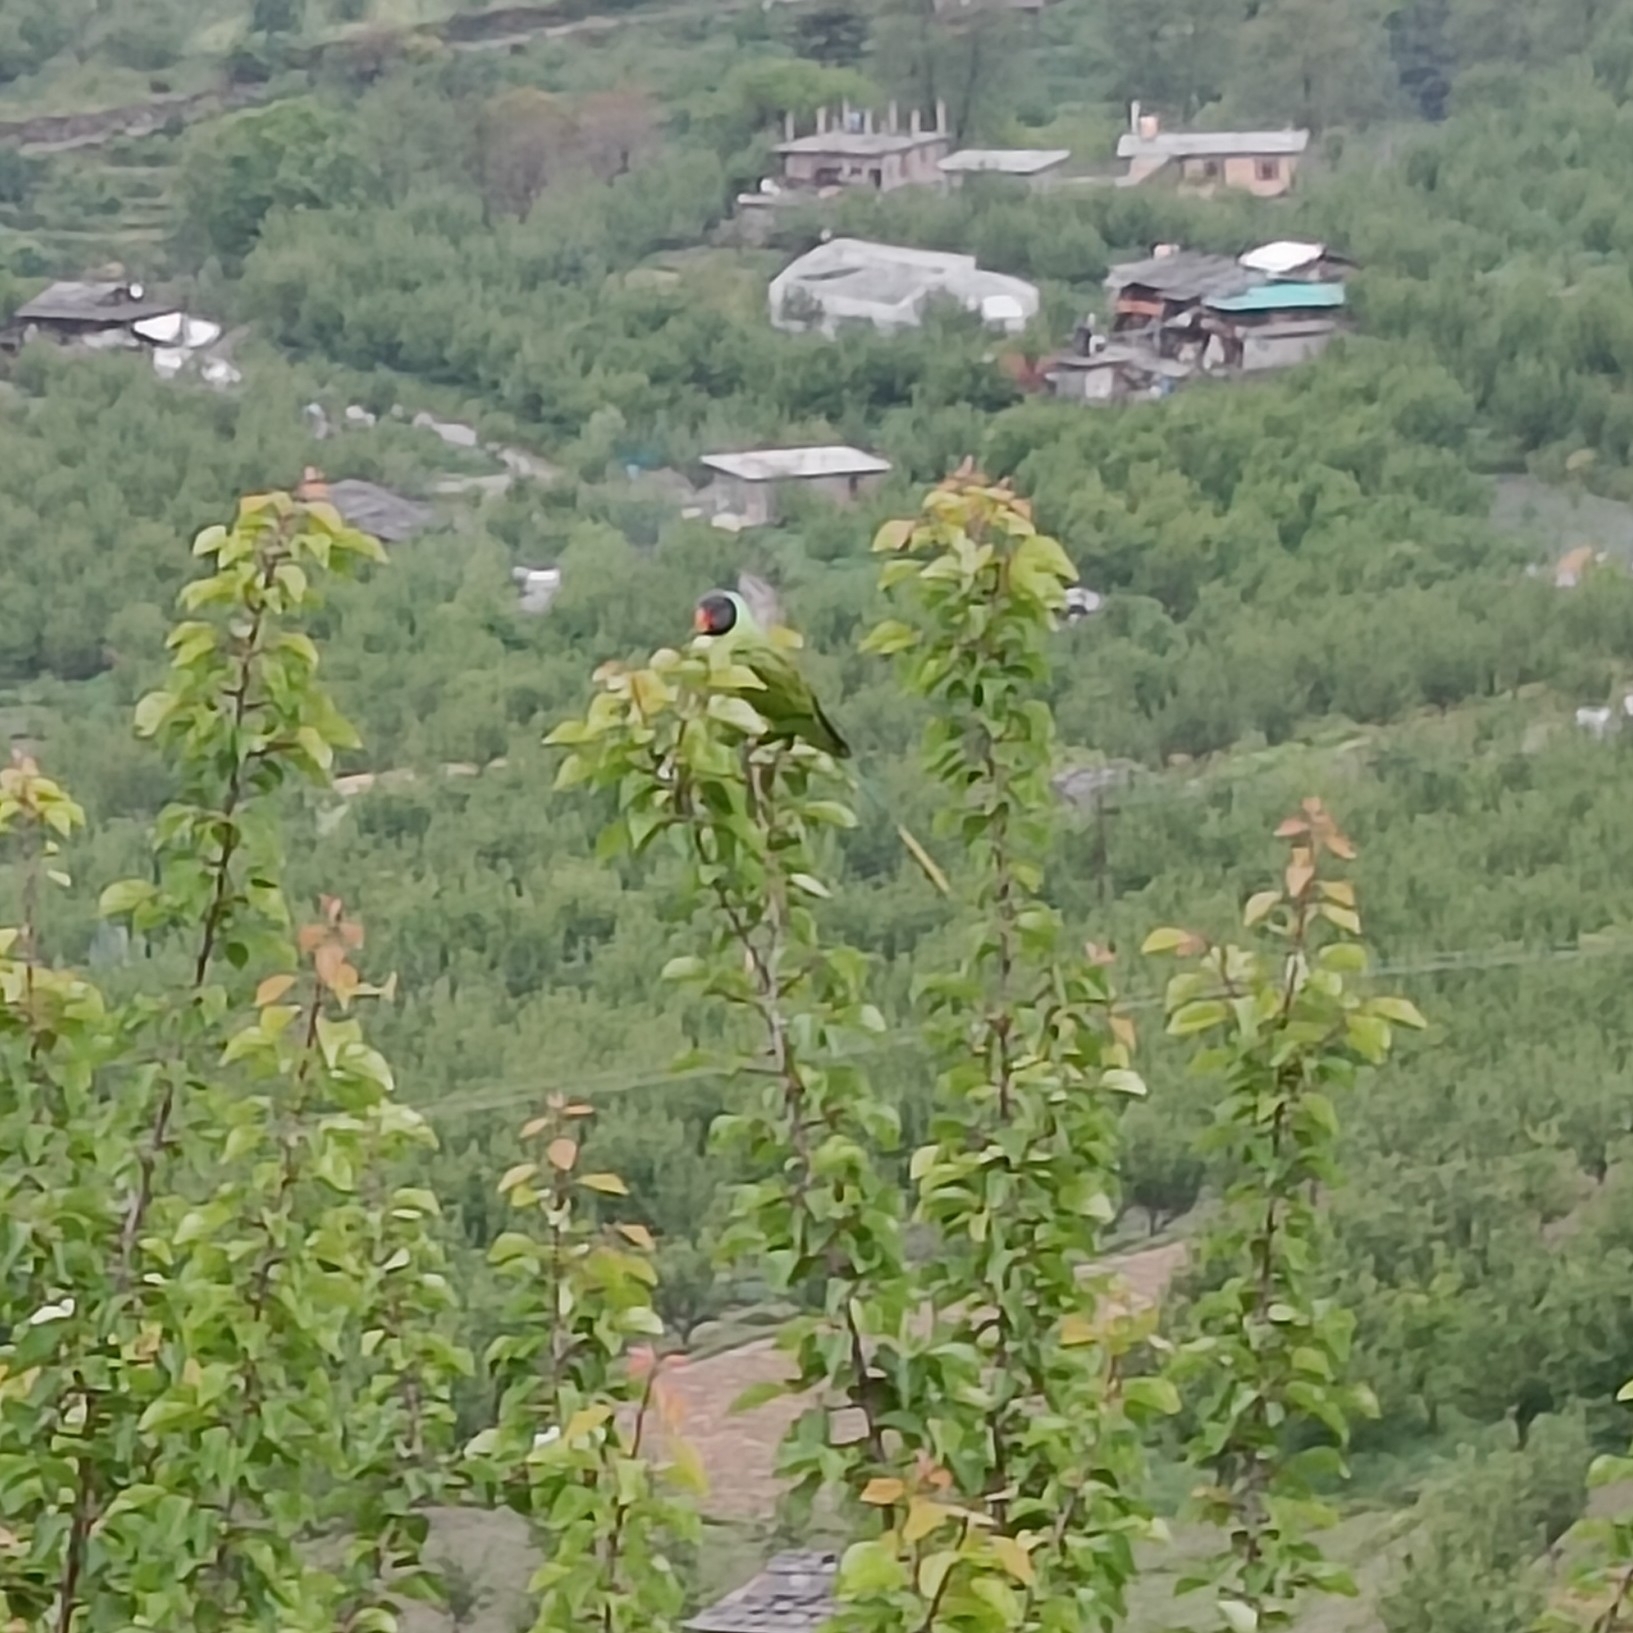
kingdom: Animalia
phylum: Chordata
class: Aves
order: Psittaciformes
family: Psittacidae
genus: Psittacula
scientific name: Psittacula himalayana
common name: Slaty-headed parakeet
